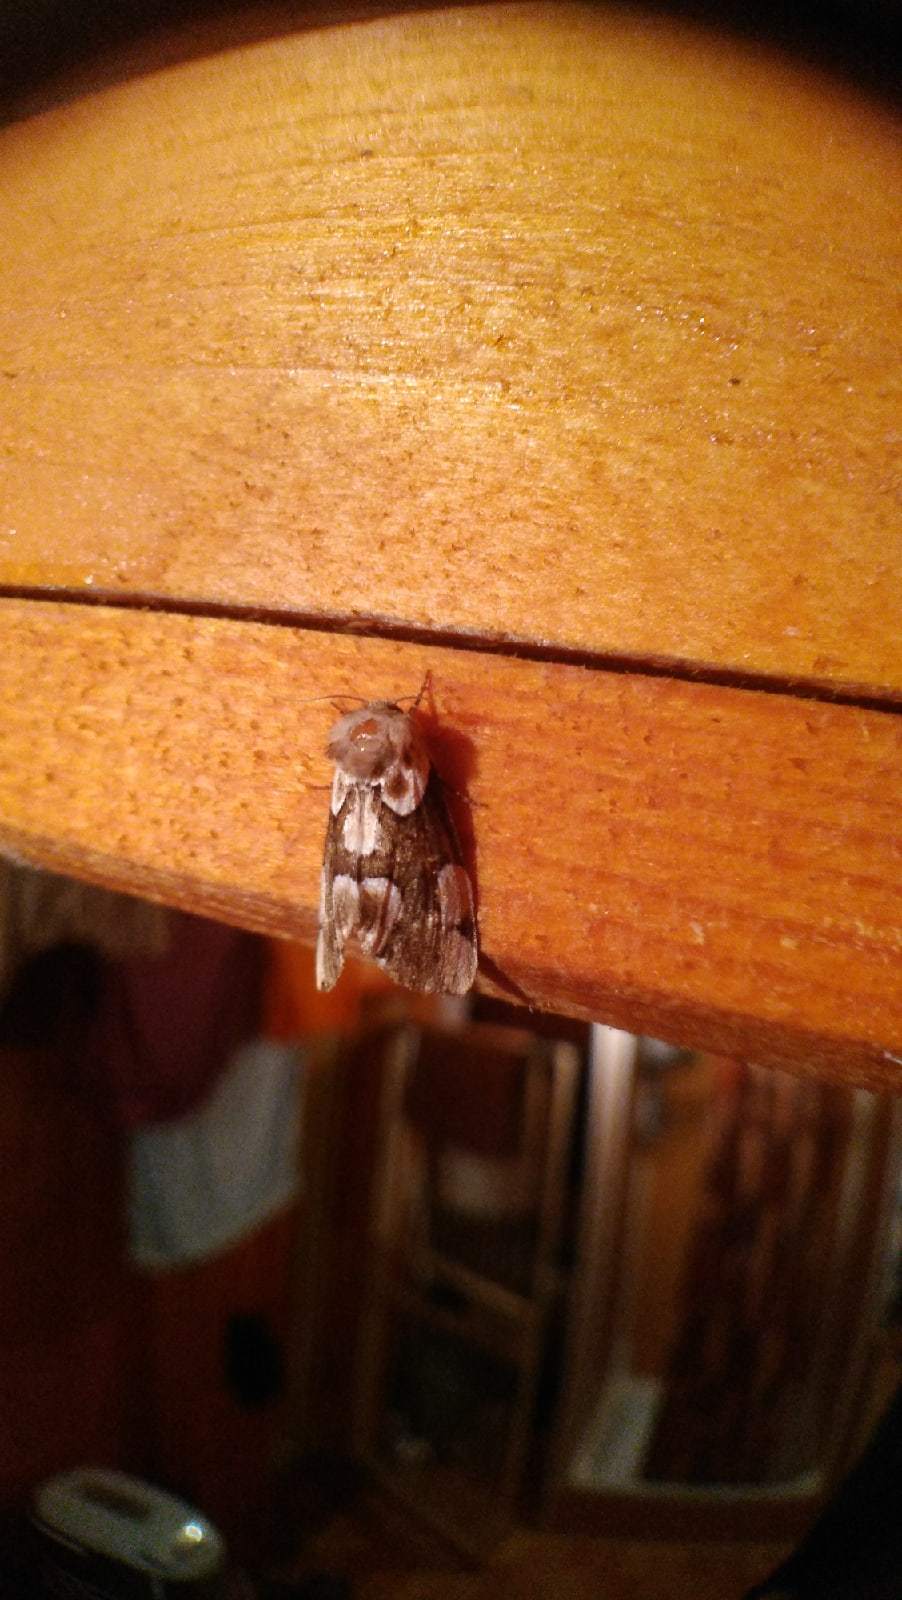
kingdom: Animalia
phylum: Arthropoda
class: Insecta
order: Lepidoptera
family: Drepanidae
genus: Thyatira
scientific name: Thyatira batis
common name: Peach blossom
